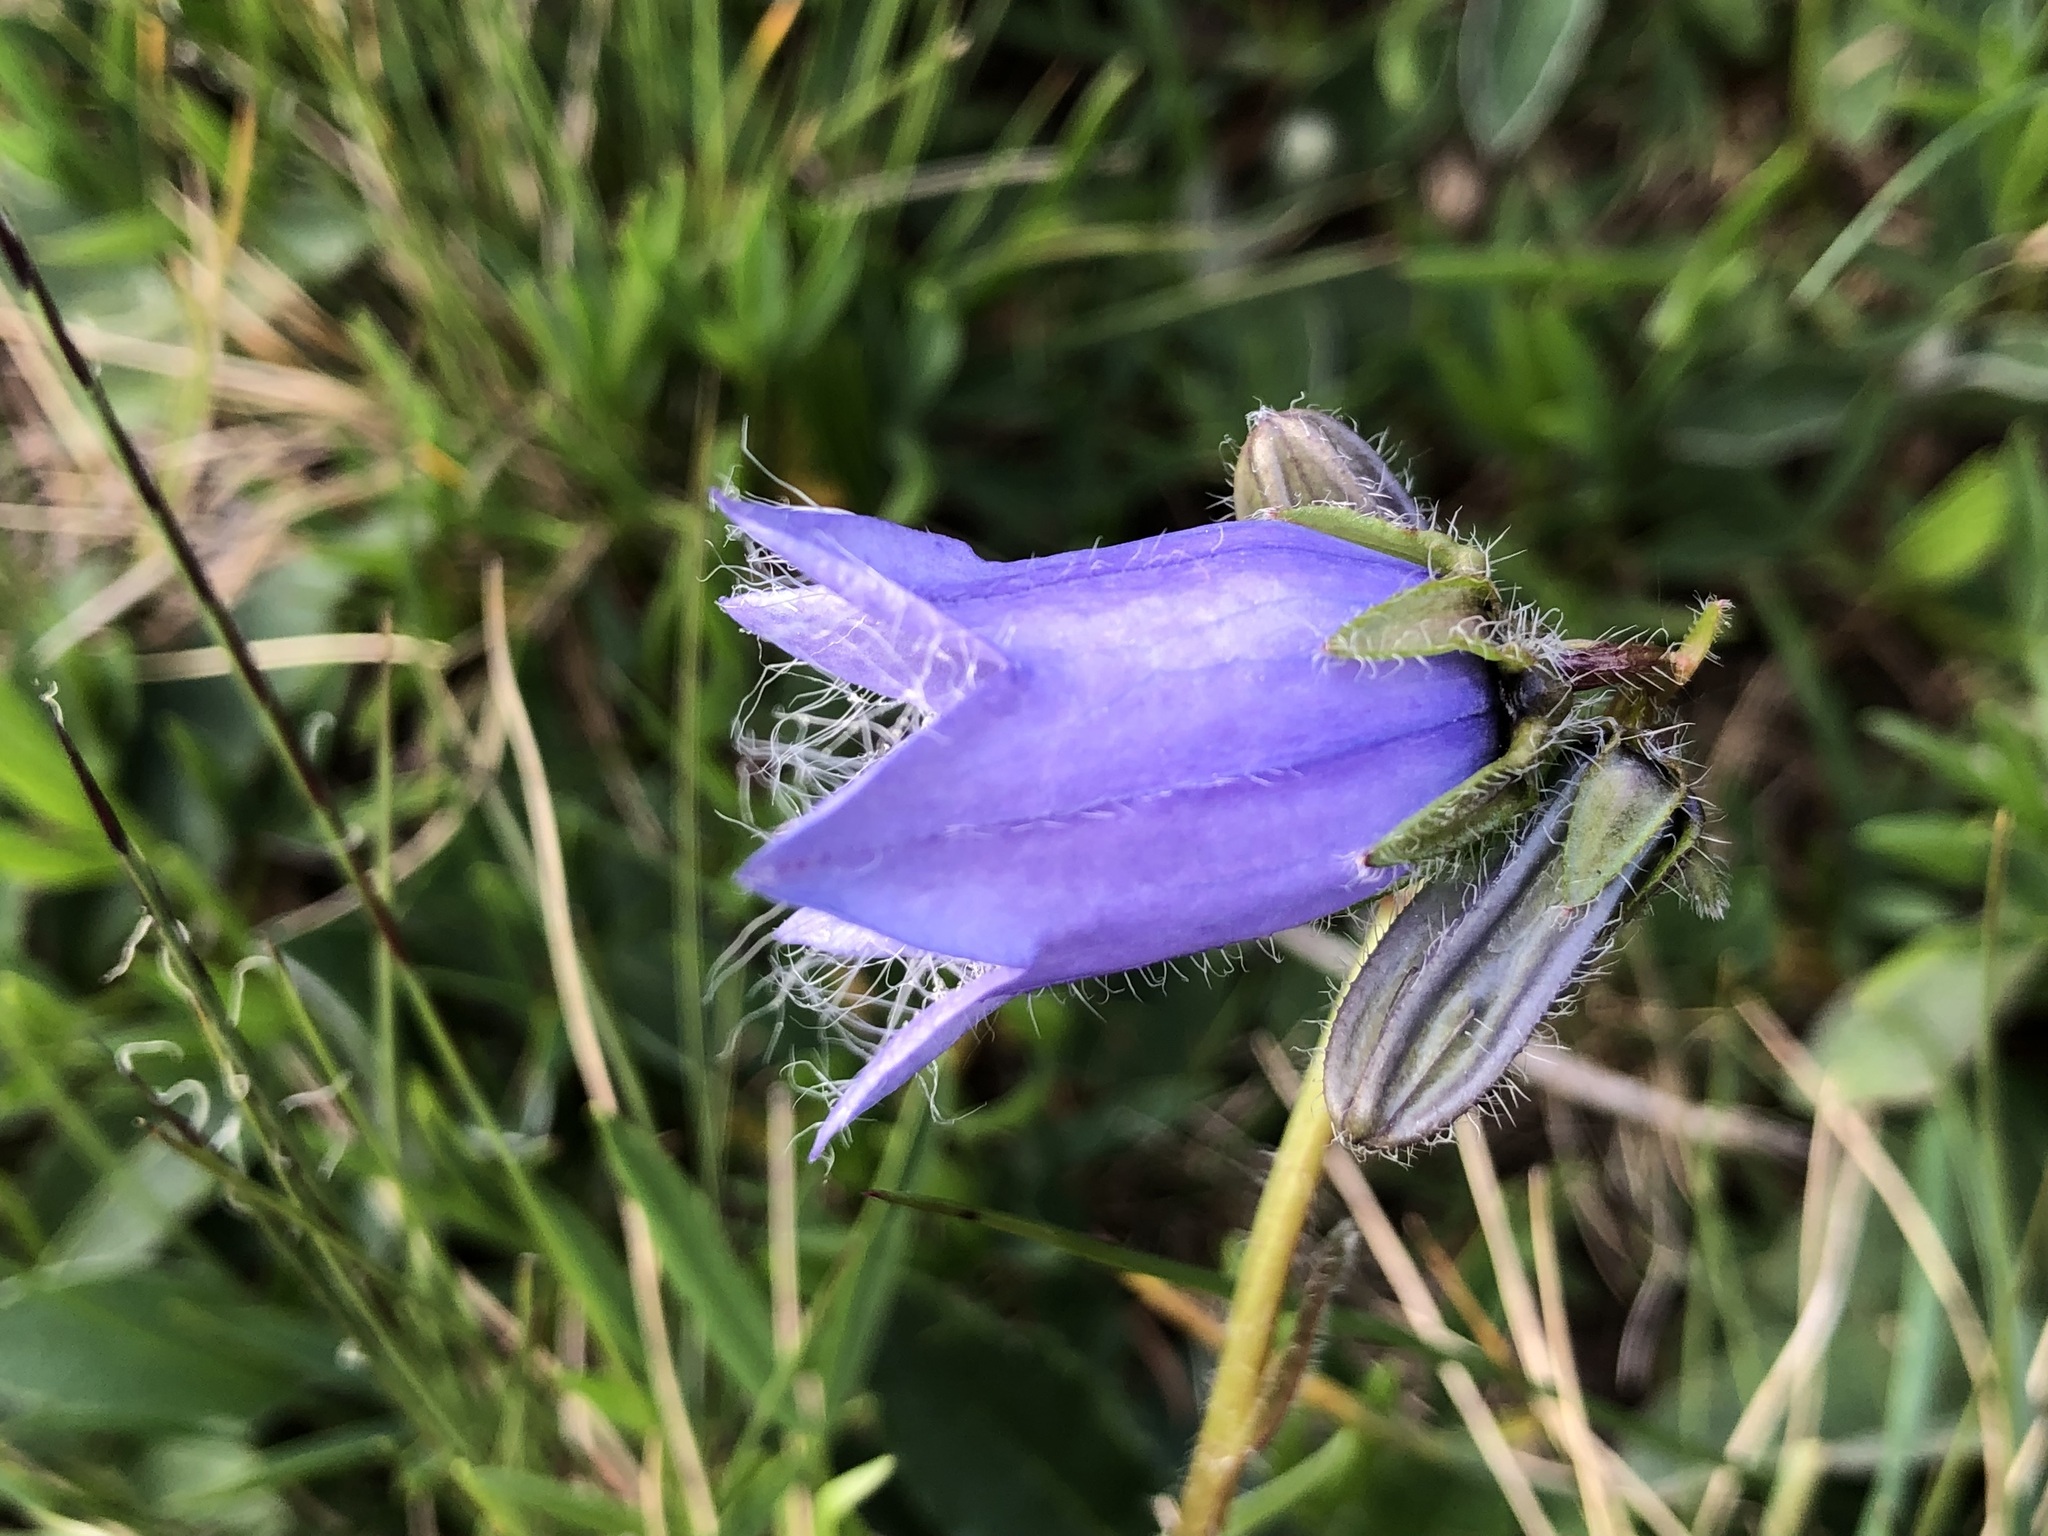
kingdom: Plantae
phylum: Tracheophyta
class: Magnoliopsida
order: Asterales
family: Campanulaceae
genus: Campanula
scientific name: Campanula barbata
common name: Bearded bellflower
